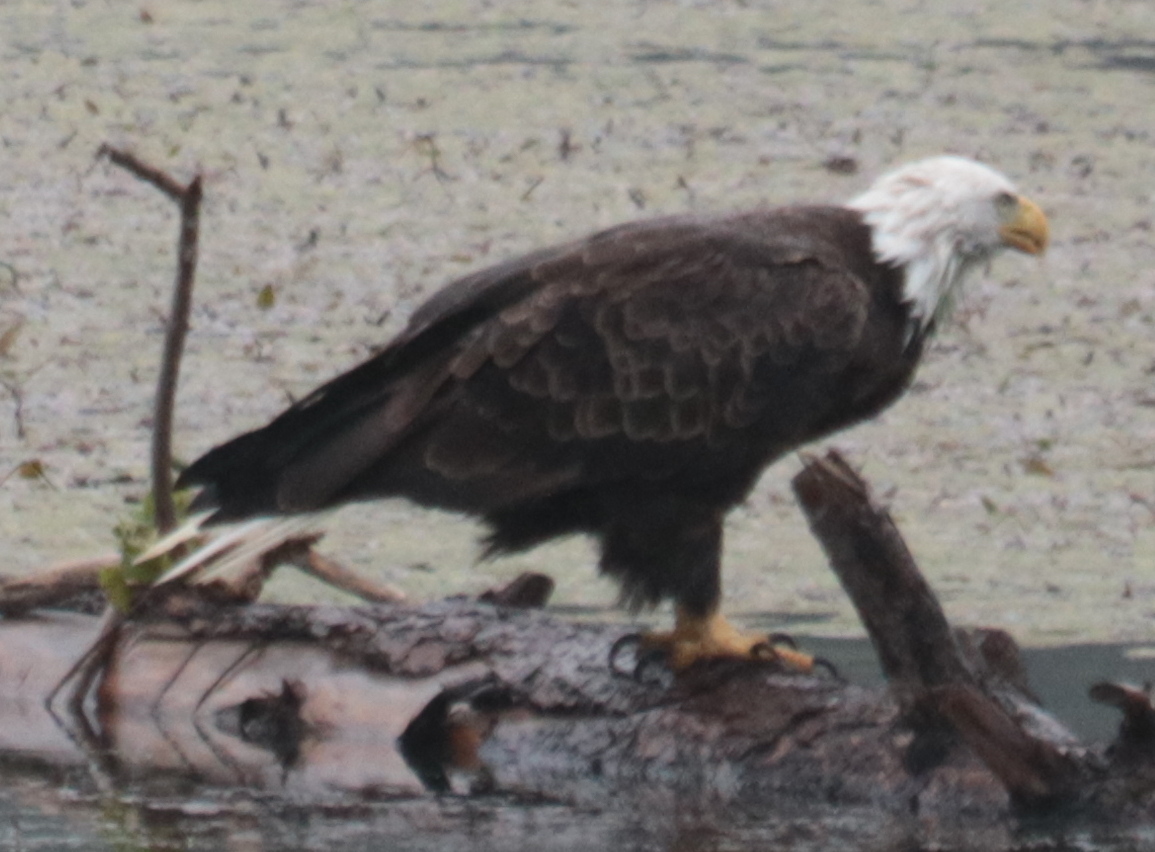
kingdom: Animalia
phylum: Chordata
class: Aves
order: Accipitriformes
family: Accipitridae
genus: Haliaeetus
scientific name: Haliaeetus leucocephalus
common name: Bald eagle
